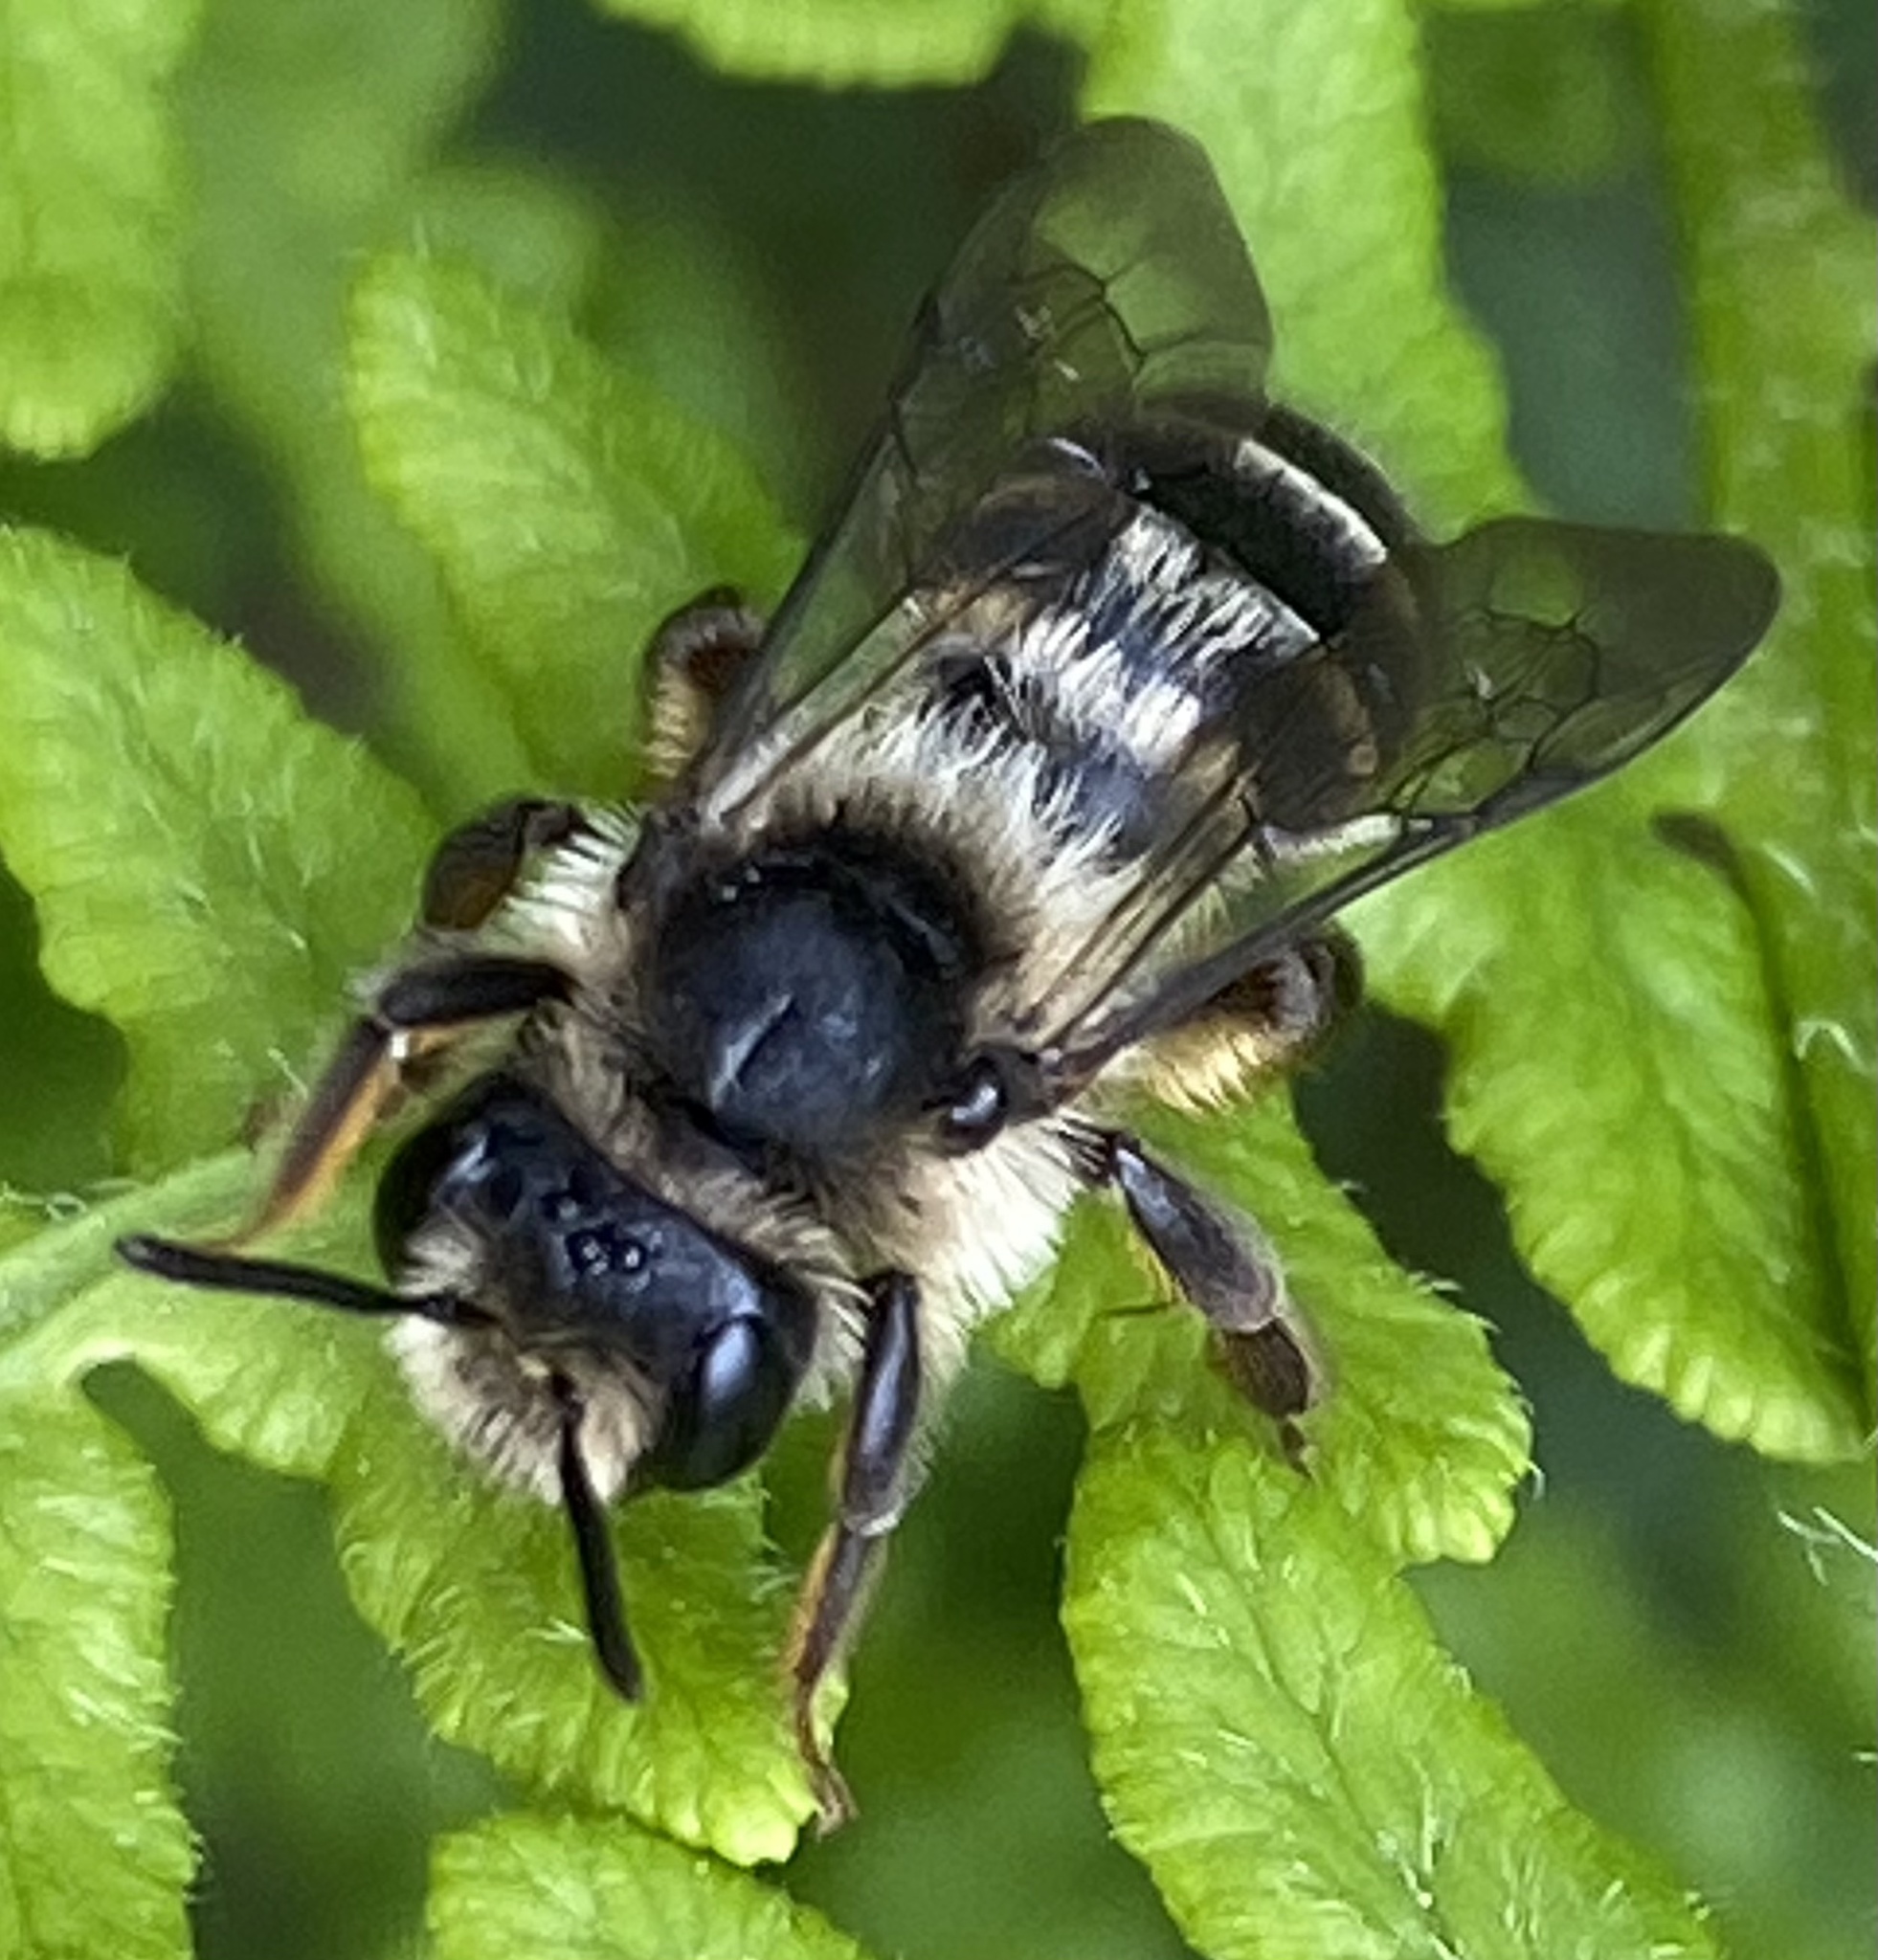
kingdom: Animalia
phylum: Arthropoda
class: Insecta
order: Hymenoptera
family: Andrenidae
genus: Andrena
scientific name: Andrena denticulata
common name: Grey-banded mining bee
